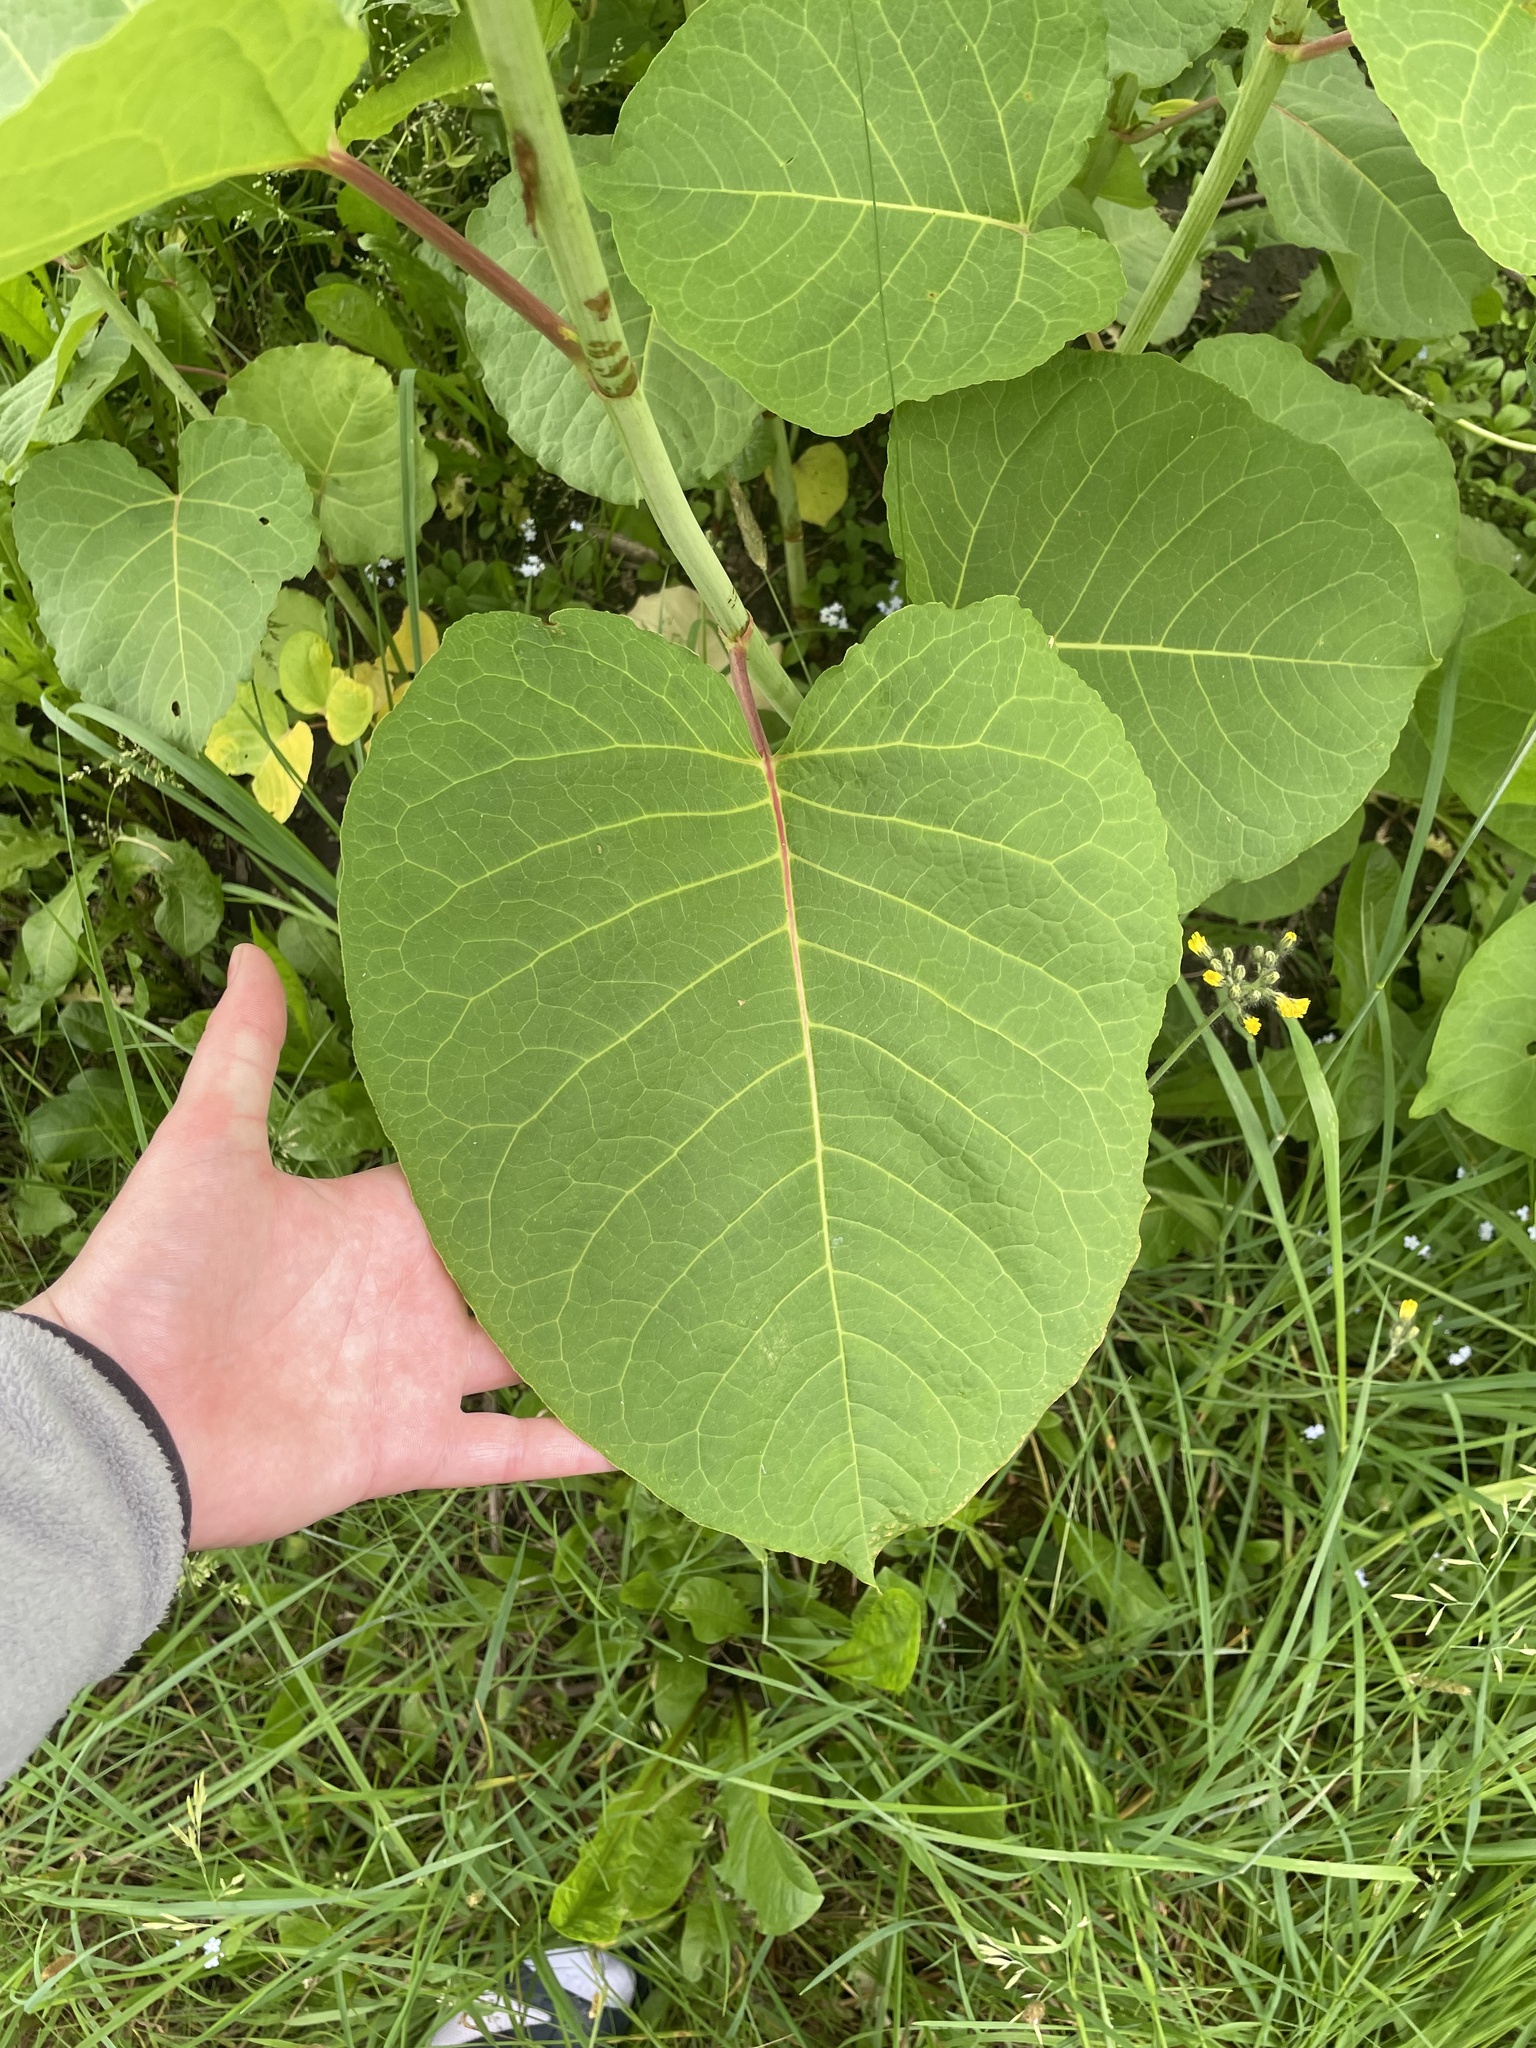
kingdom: Plantae
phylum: Tracheophyta
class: Magnoliopsida
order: Caryophyllales
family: Polygonaceae
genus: Reynoutria
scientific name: Reynoutria sachalinensis
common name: Giant knotweed
